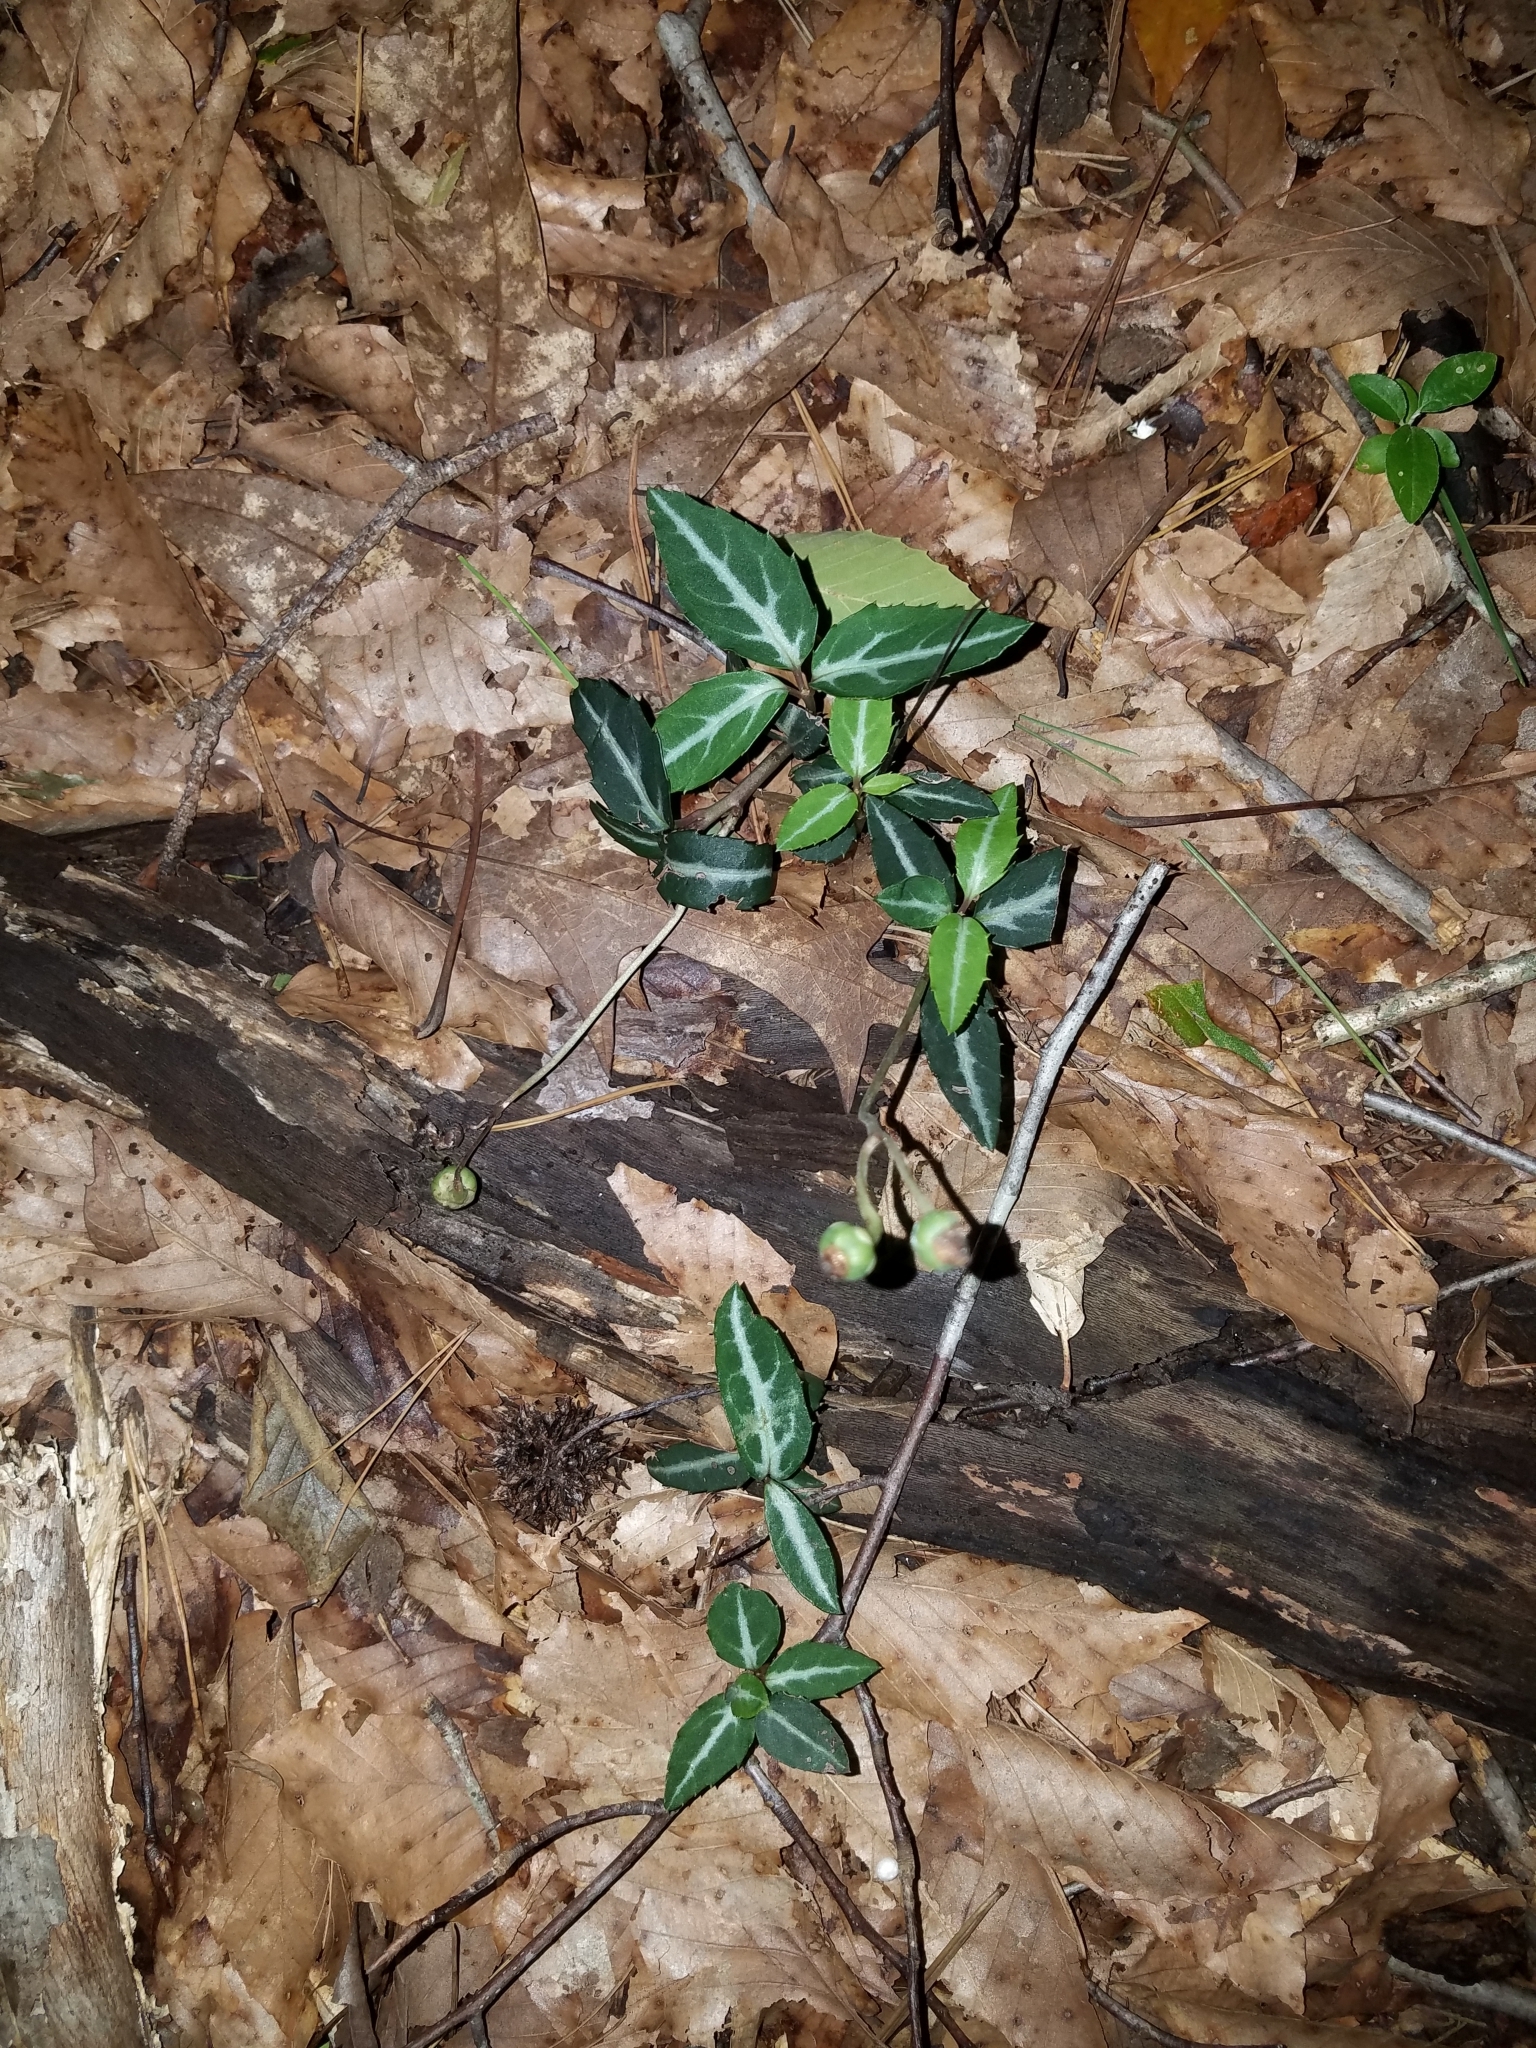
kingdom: Plantae
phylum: Tracheophyta
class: Magnoliopsida
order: Ericales
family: Ericaceae
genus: Chimaphila
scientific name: Chimaphila maculata
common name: Spotted pipsissewa
